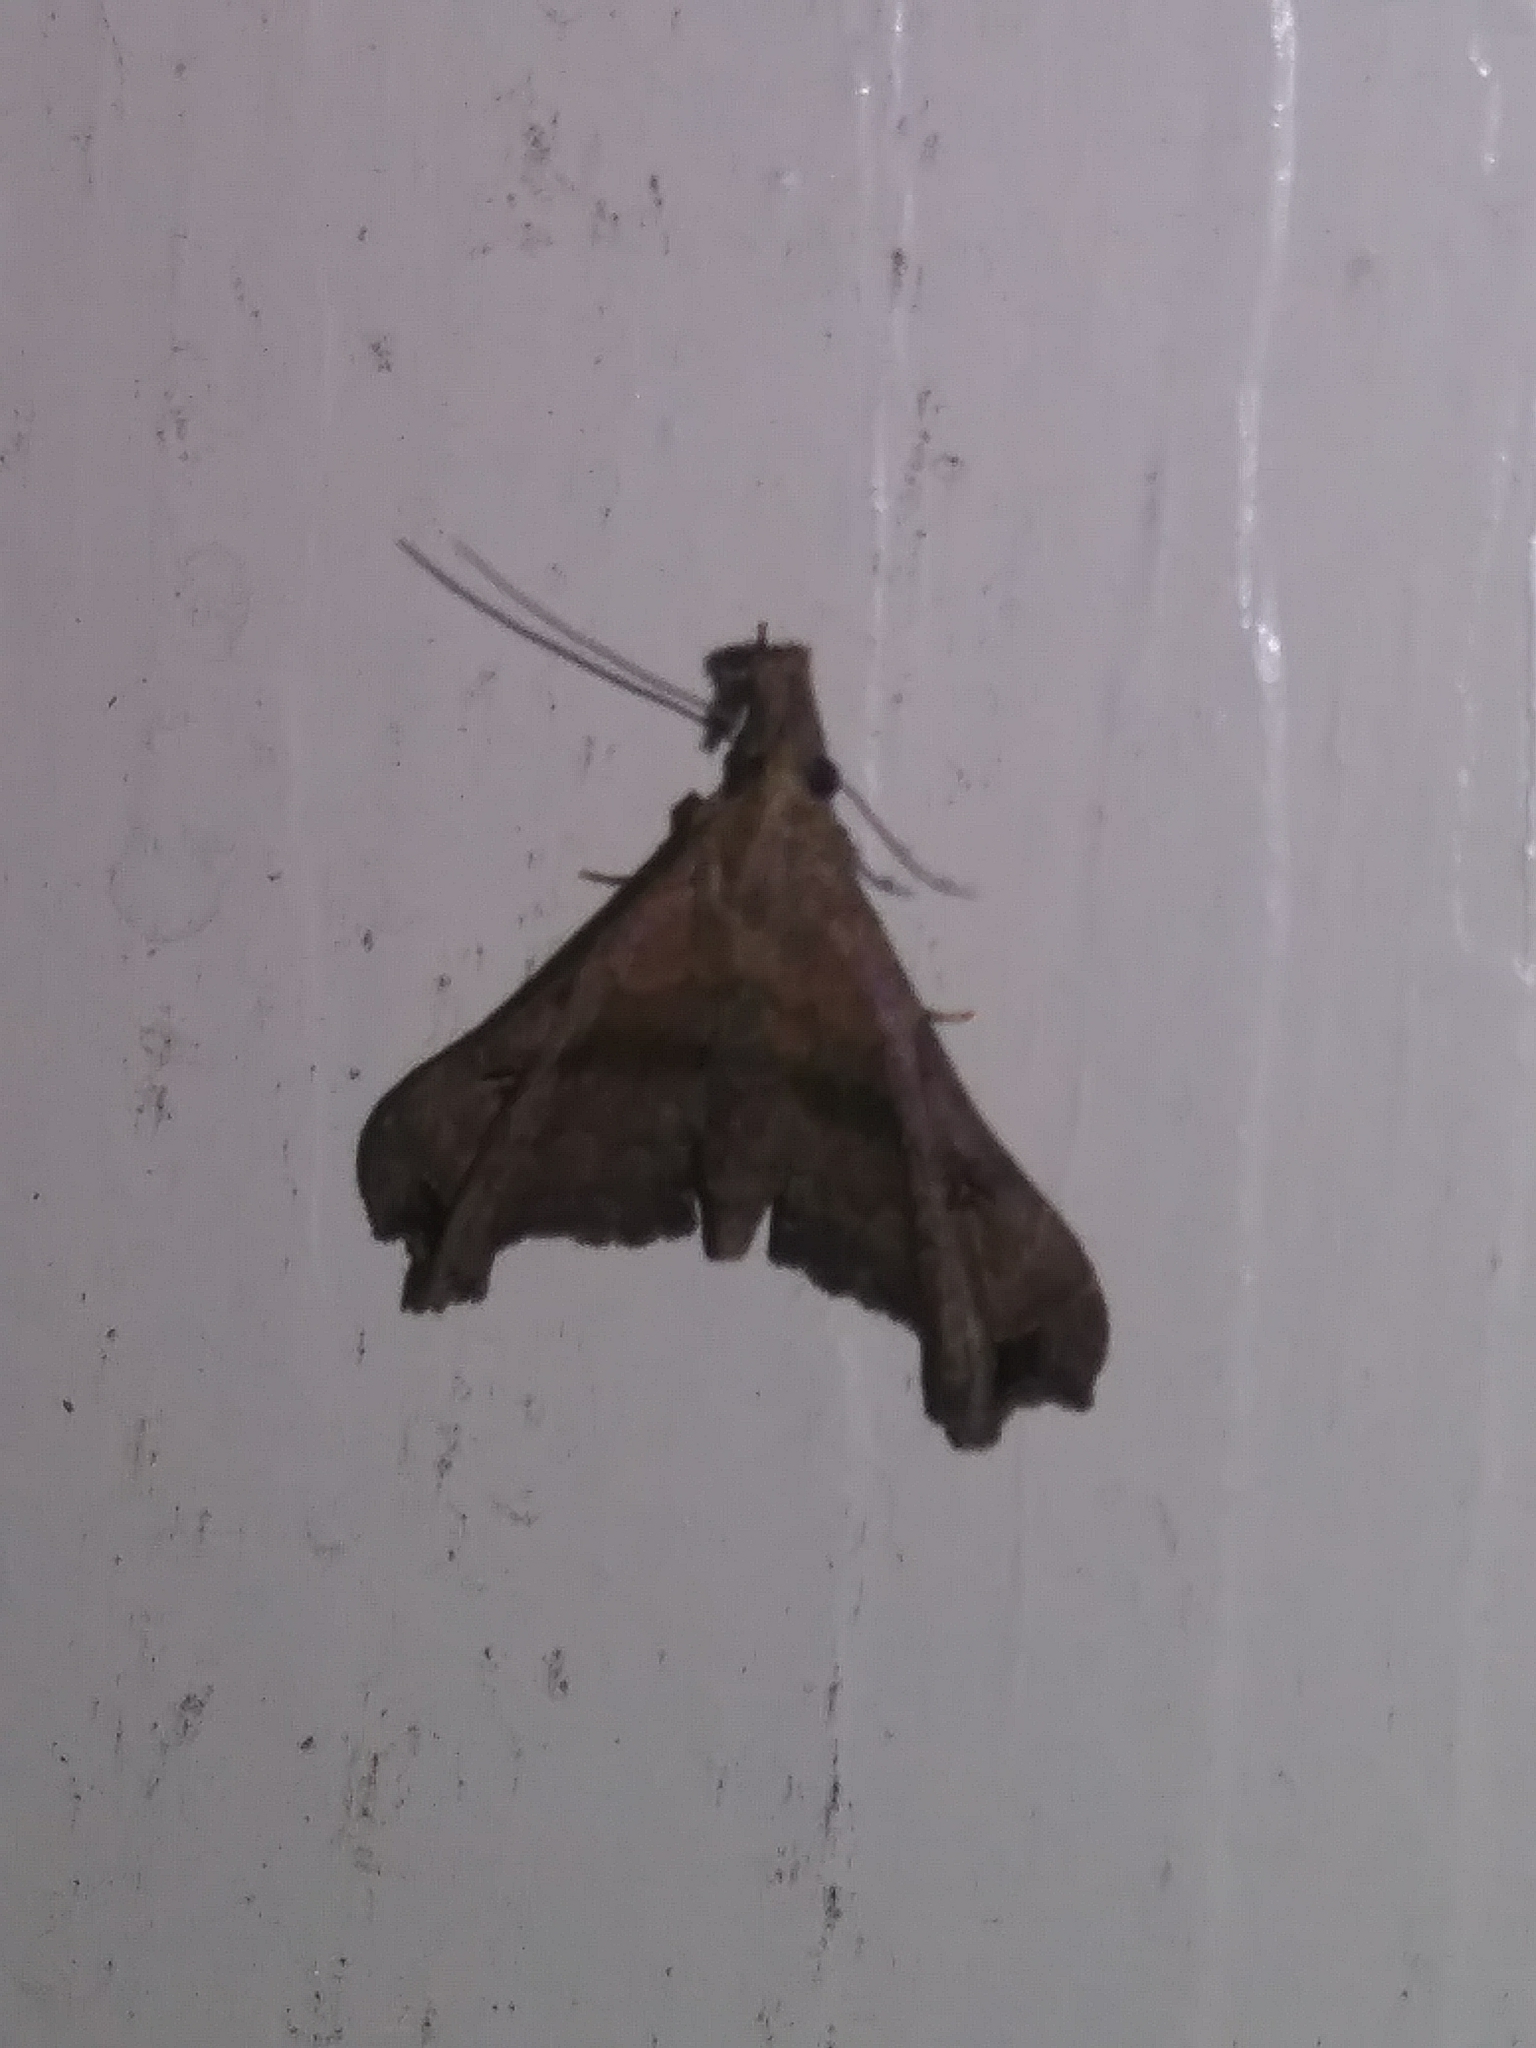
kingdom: Animalia
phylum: Arthropoda
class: Insecta
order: Lepidoptera
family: Erebidae
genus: Palthis
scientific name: Palthis asopialis
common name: Faint-spotted palthis moth
